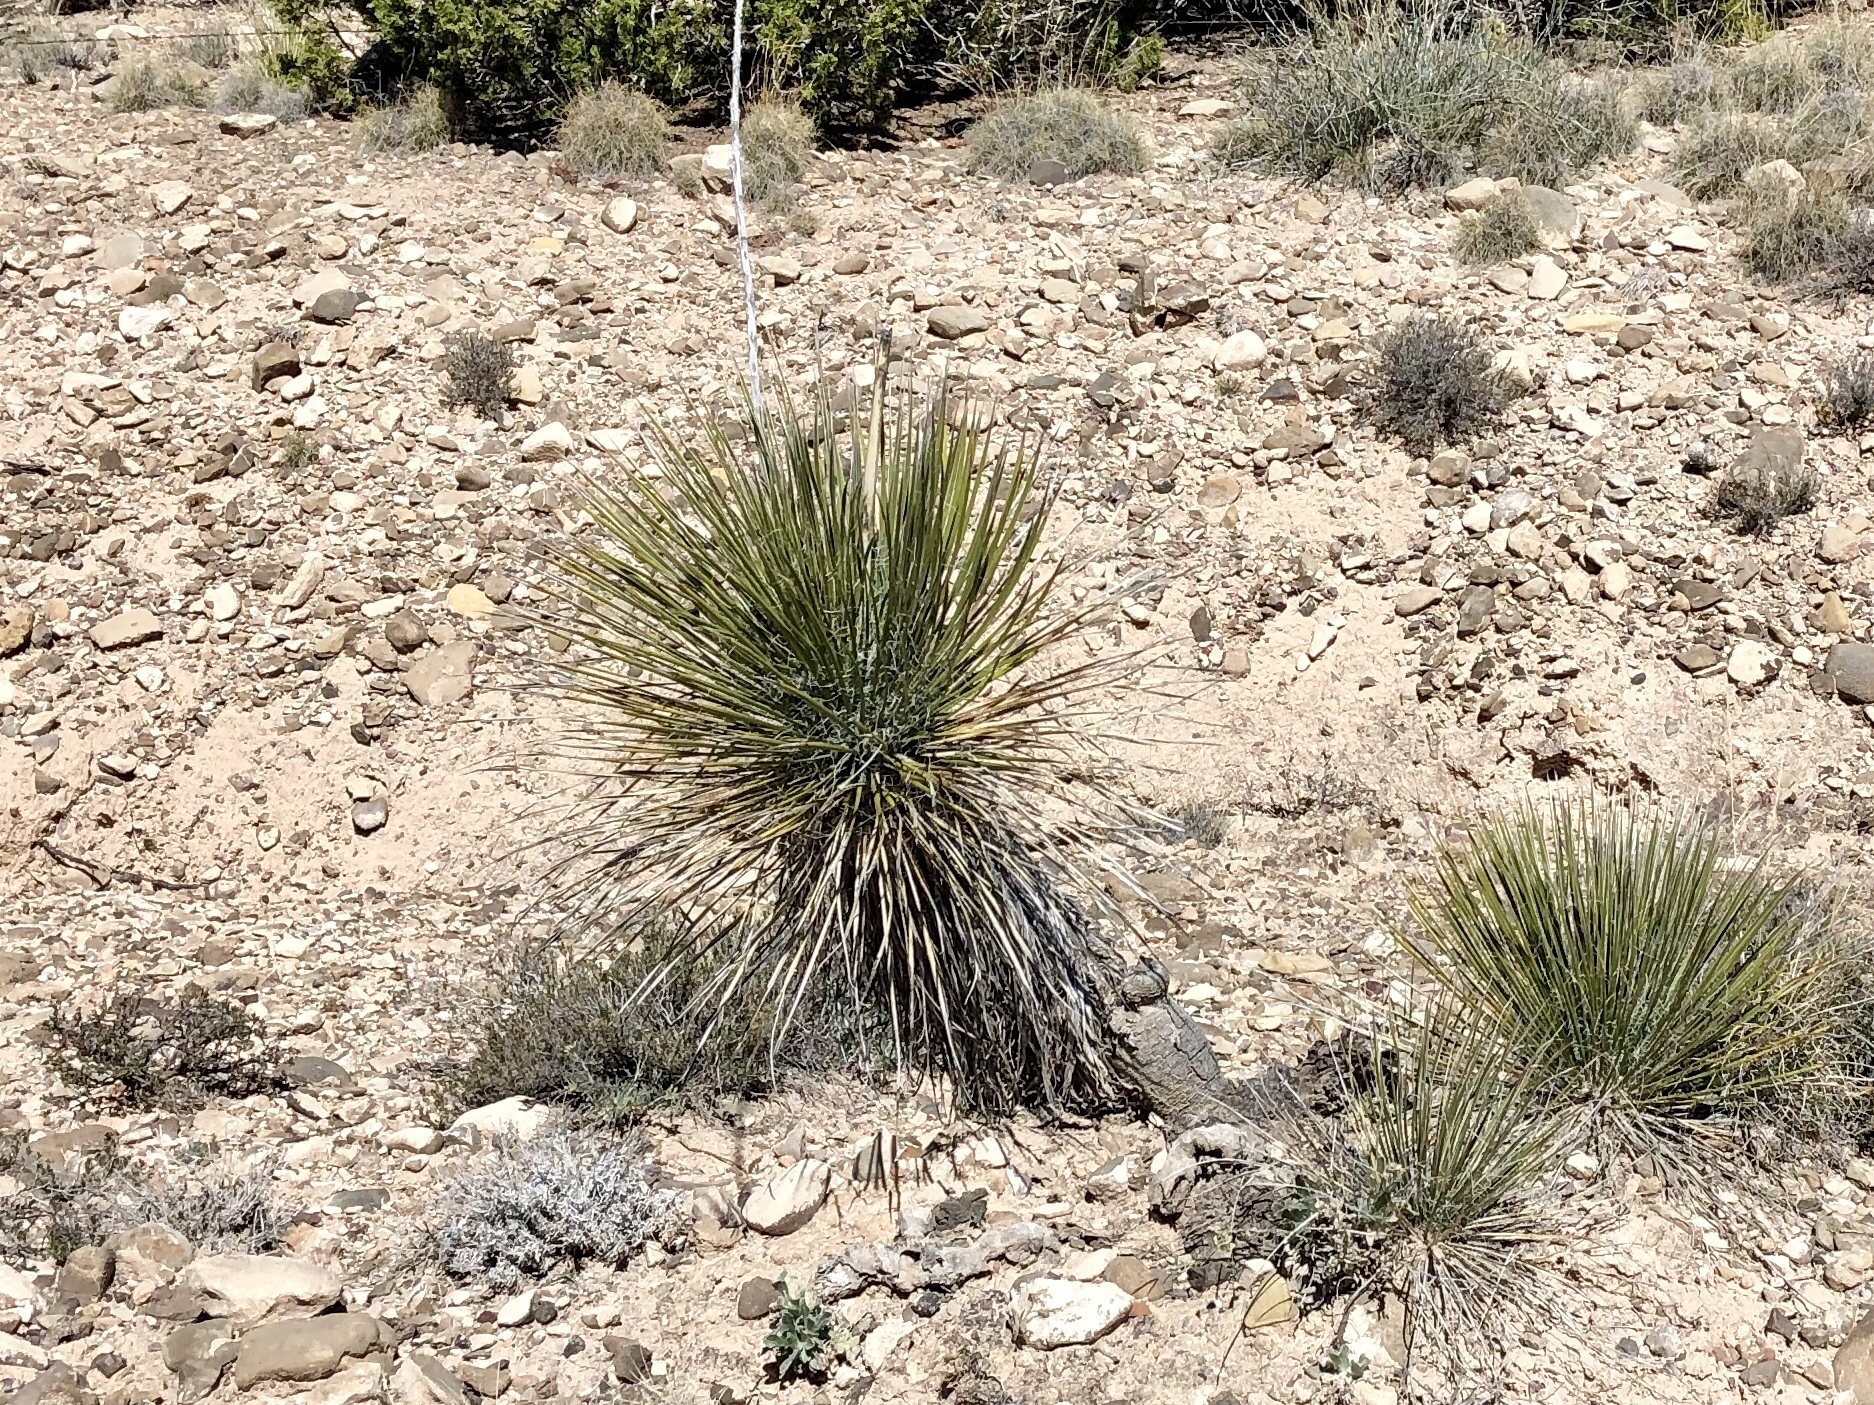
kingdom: Plantae
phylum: Tracheophyta
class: Liliopsida
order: Asparagales
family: Asparagaceae
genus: Yucca
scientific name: Yucca elata
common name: Palmella
